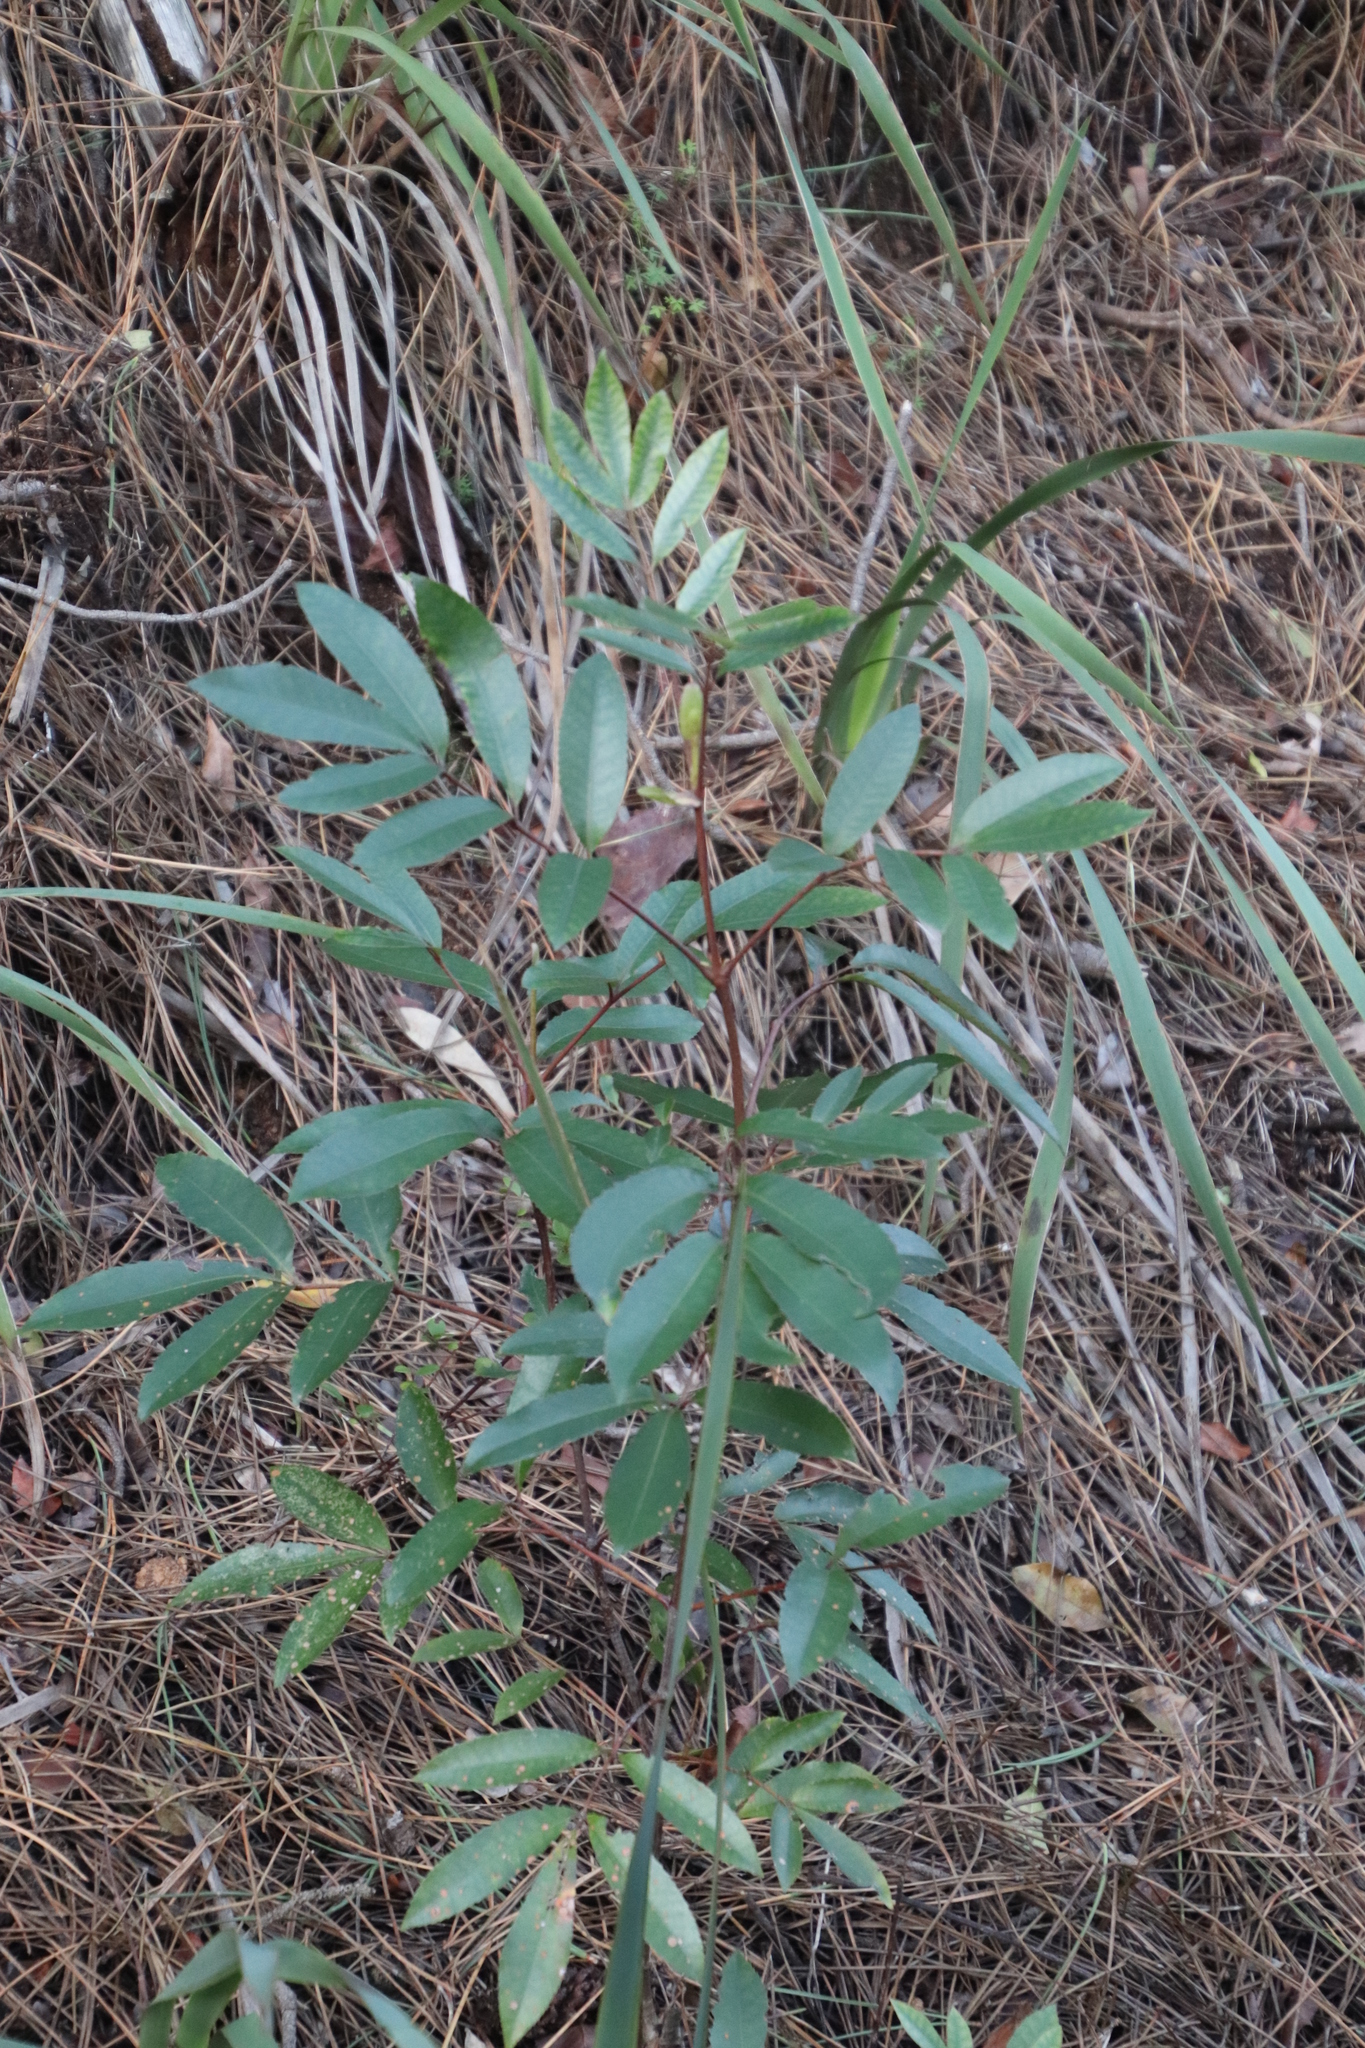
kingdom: Plantae
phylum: Tracheophyta
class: Magnoliopsida
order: Oxalidales
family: Cunoniaceae
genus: Cunonia
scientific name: Cunonia capensis
